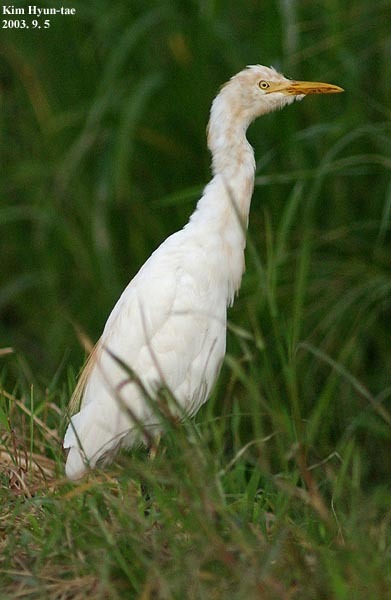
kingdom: Animalia
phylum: Chordata
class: Aves
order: Pelecaniformes
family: Ardeidae
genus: Bubulcus
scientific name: Bubulcus coromandus
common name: Eastern cattle egret
